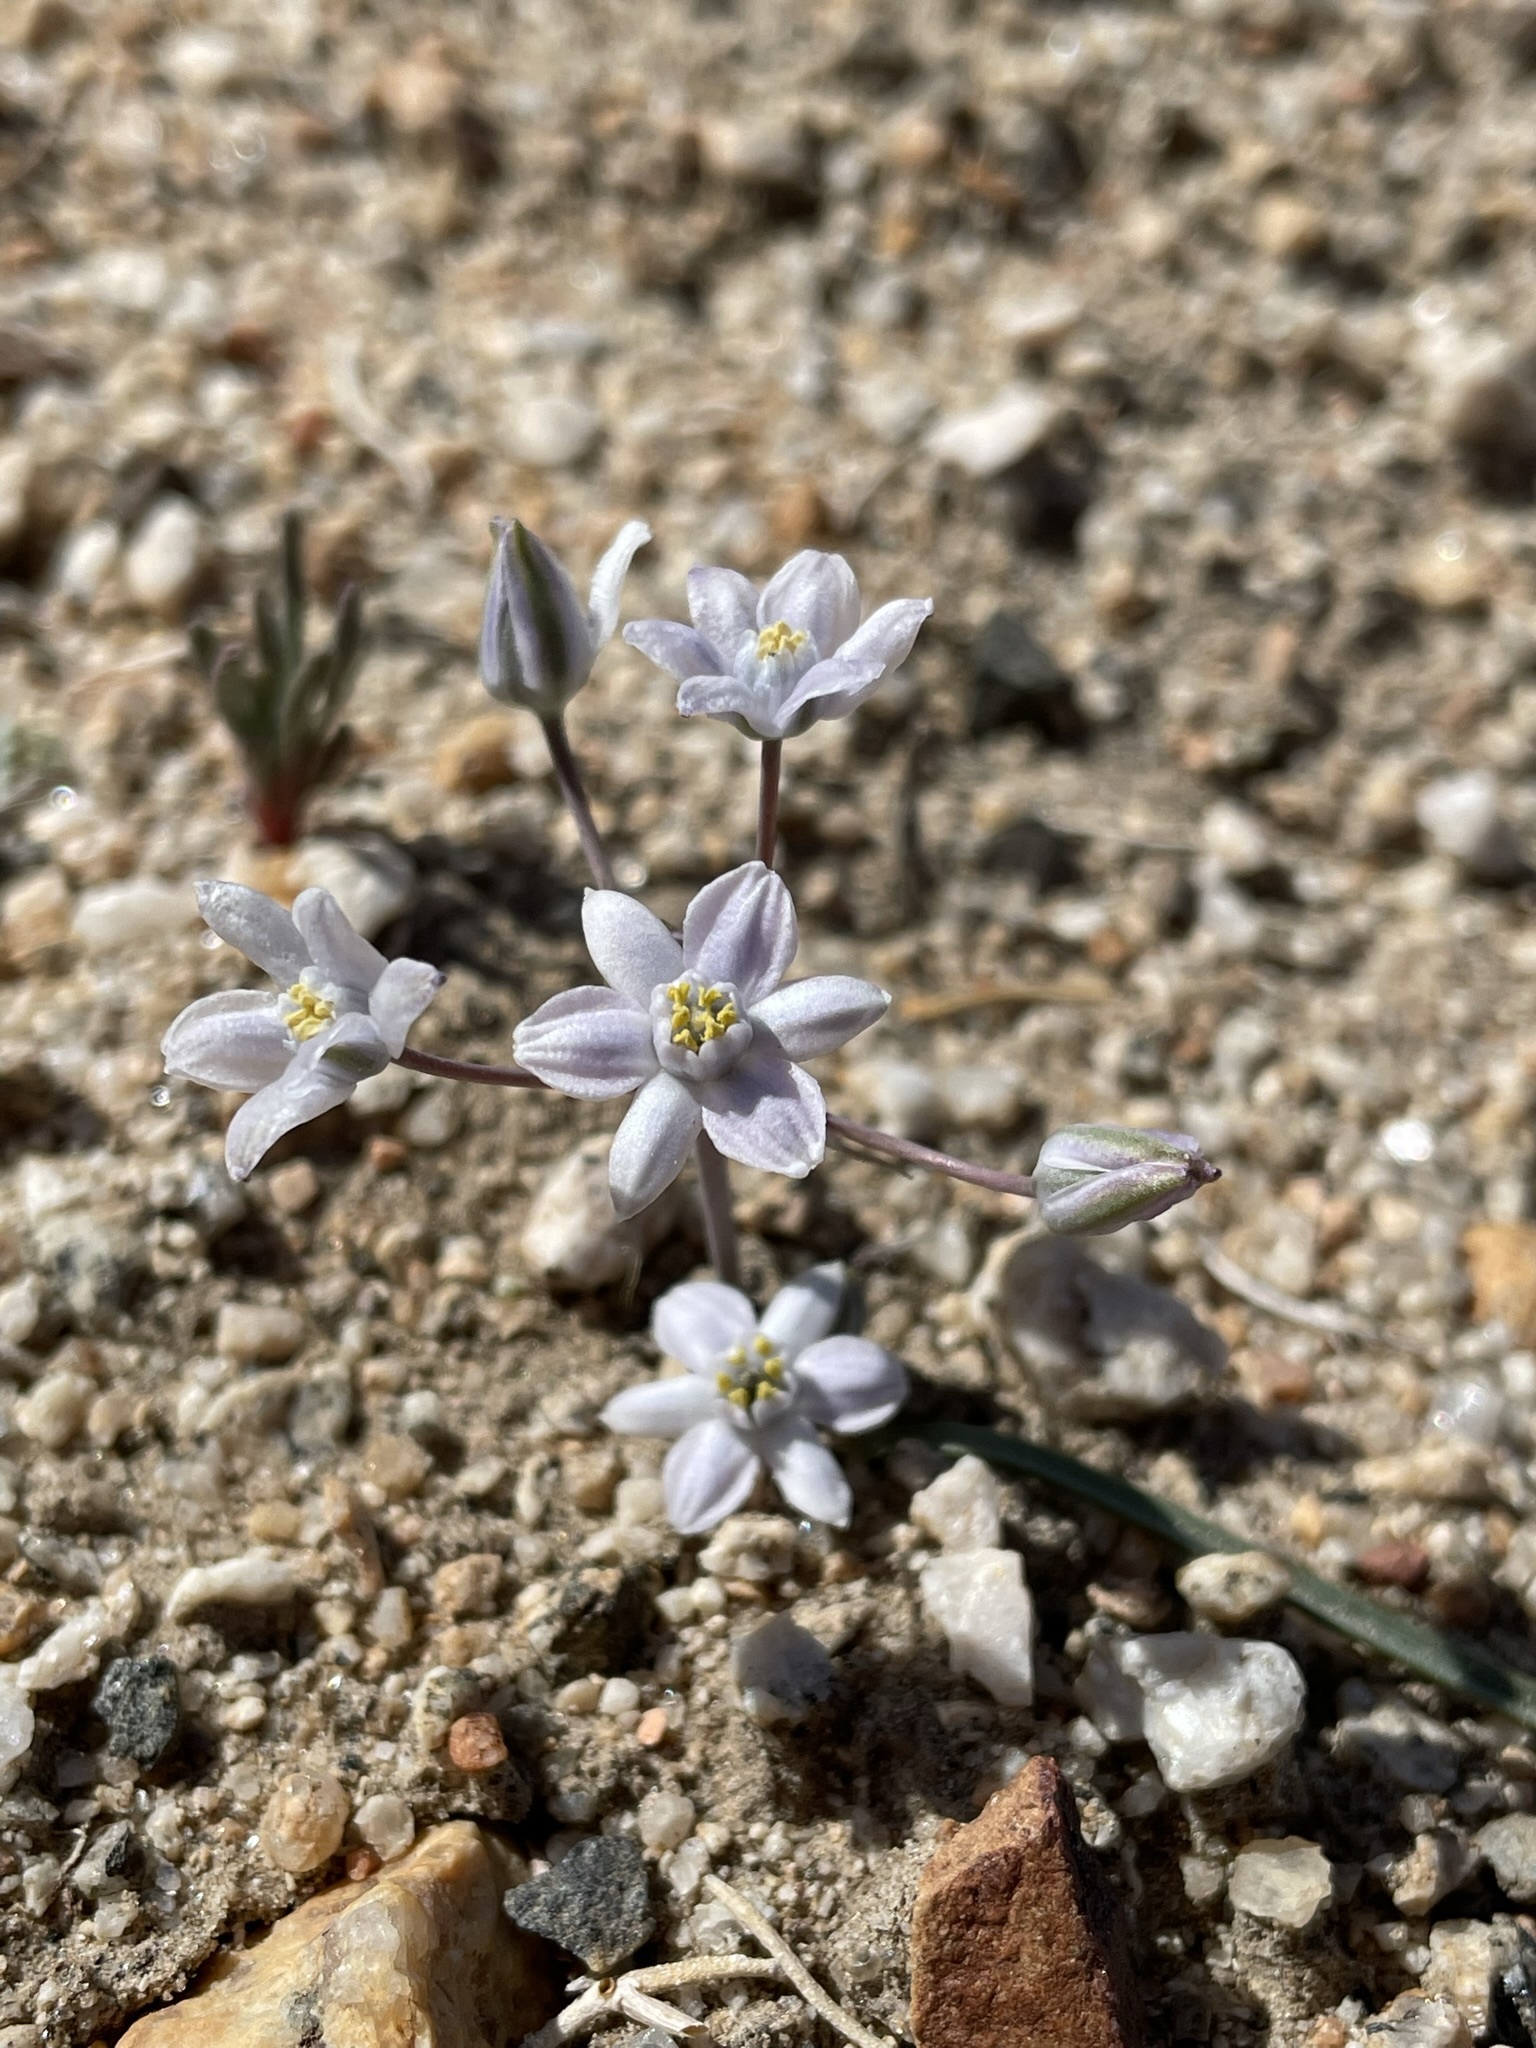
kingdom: Plantae
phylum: Tracheophyta
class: Liliopsida
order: Asparagales
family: Asparagaceae
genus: Muilla
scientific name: Muilla coronata
